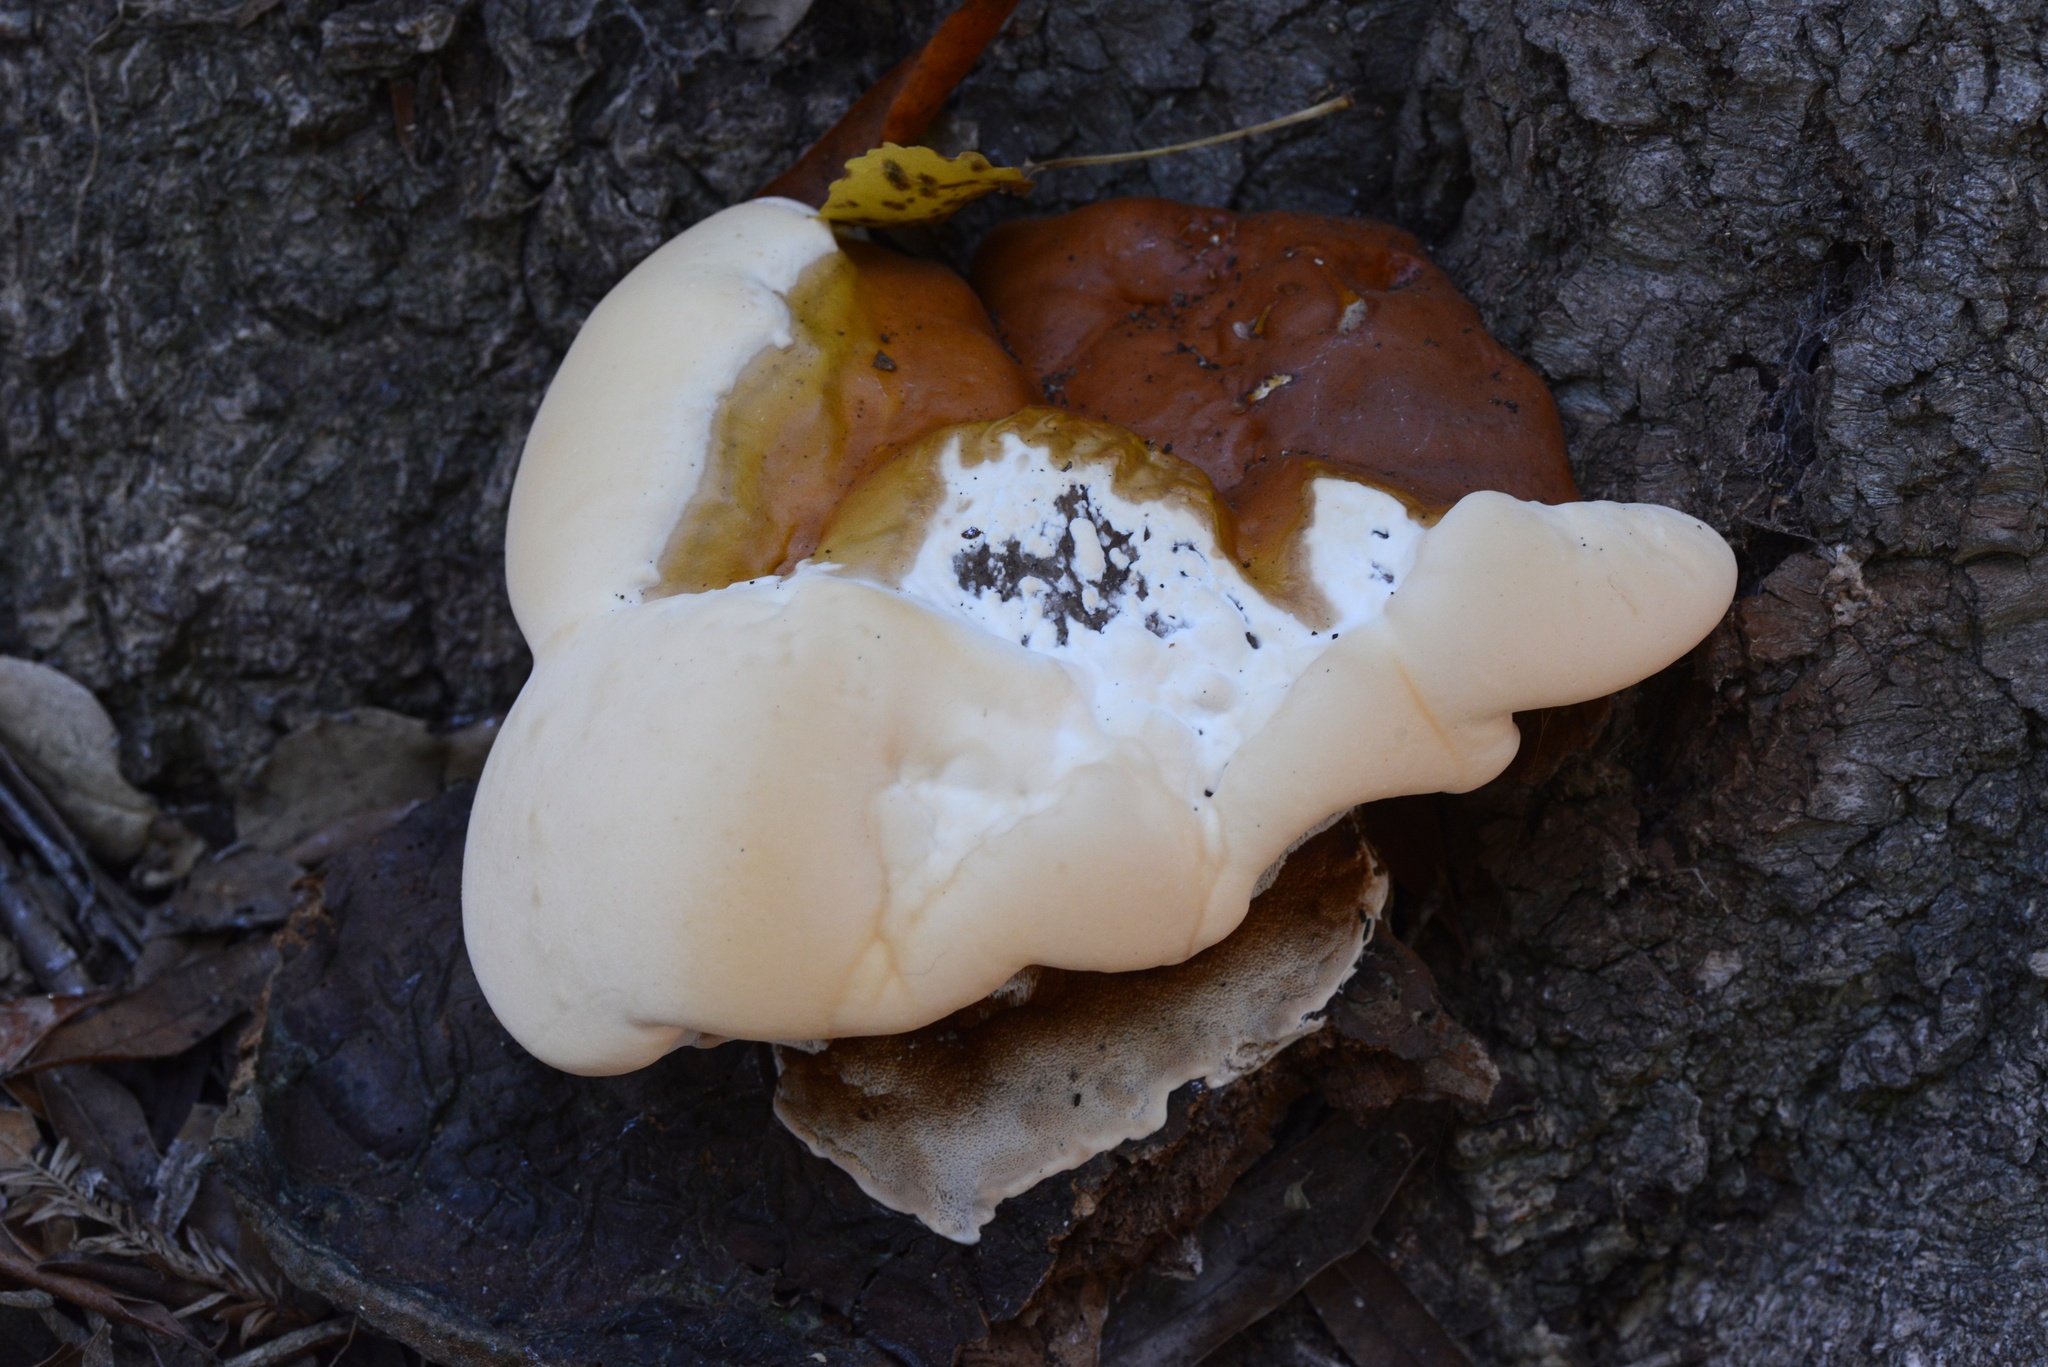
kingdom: Fungi
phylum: Basidiomycota
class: Agaricomycetes
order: Polyporales
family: Polyporaceae
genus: Ganoderma
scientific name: Ganoderma polychromum
